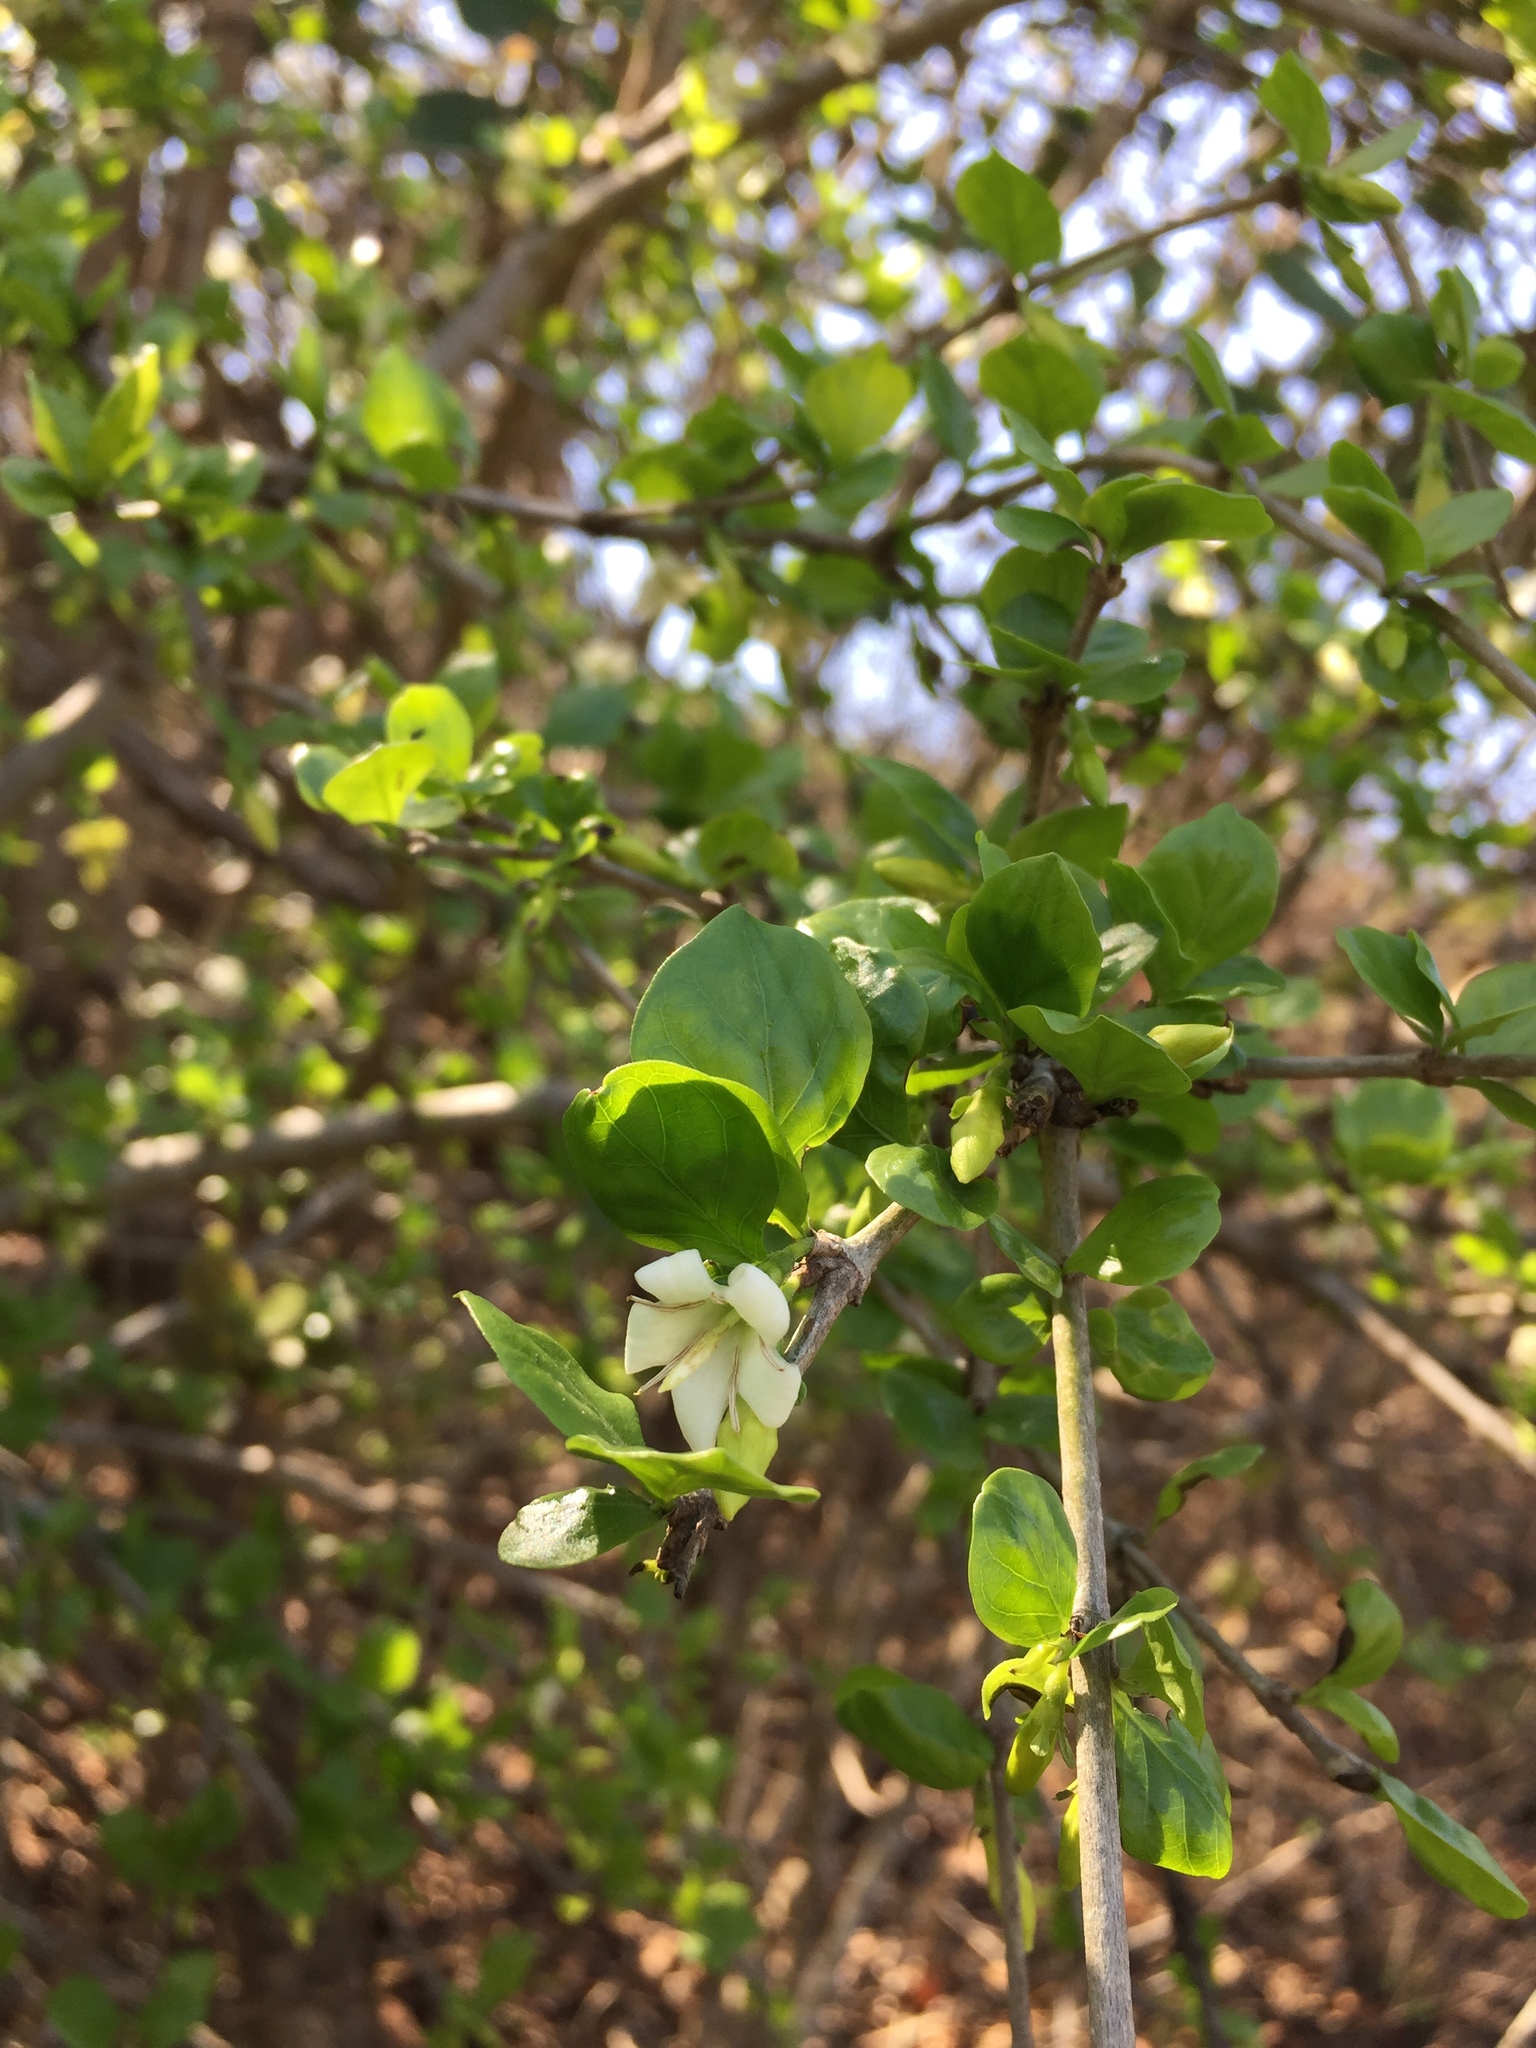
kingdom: Plantae
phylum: Tracheophyta
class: Magnoliopsida
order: Gentianales
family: Rubiaceae
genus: Coddia
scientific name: Coddia rudis
